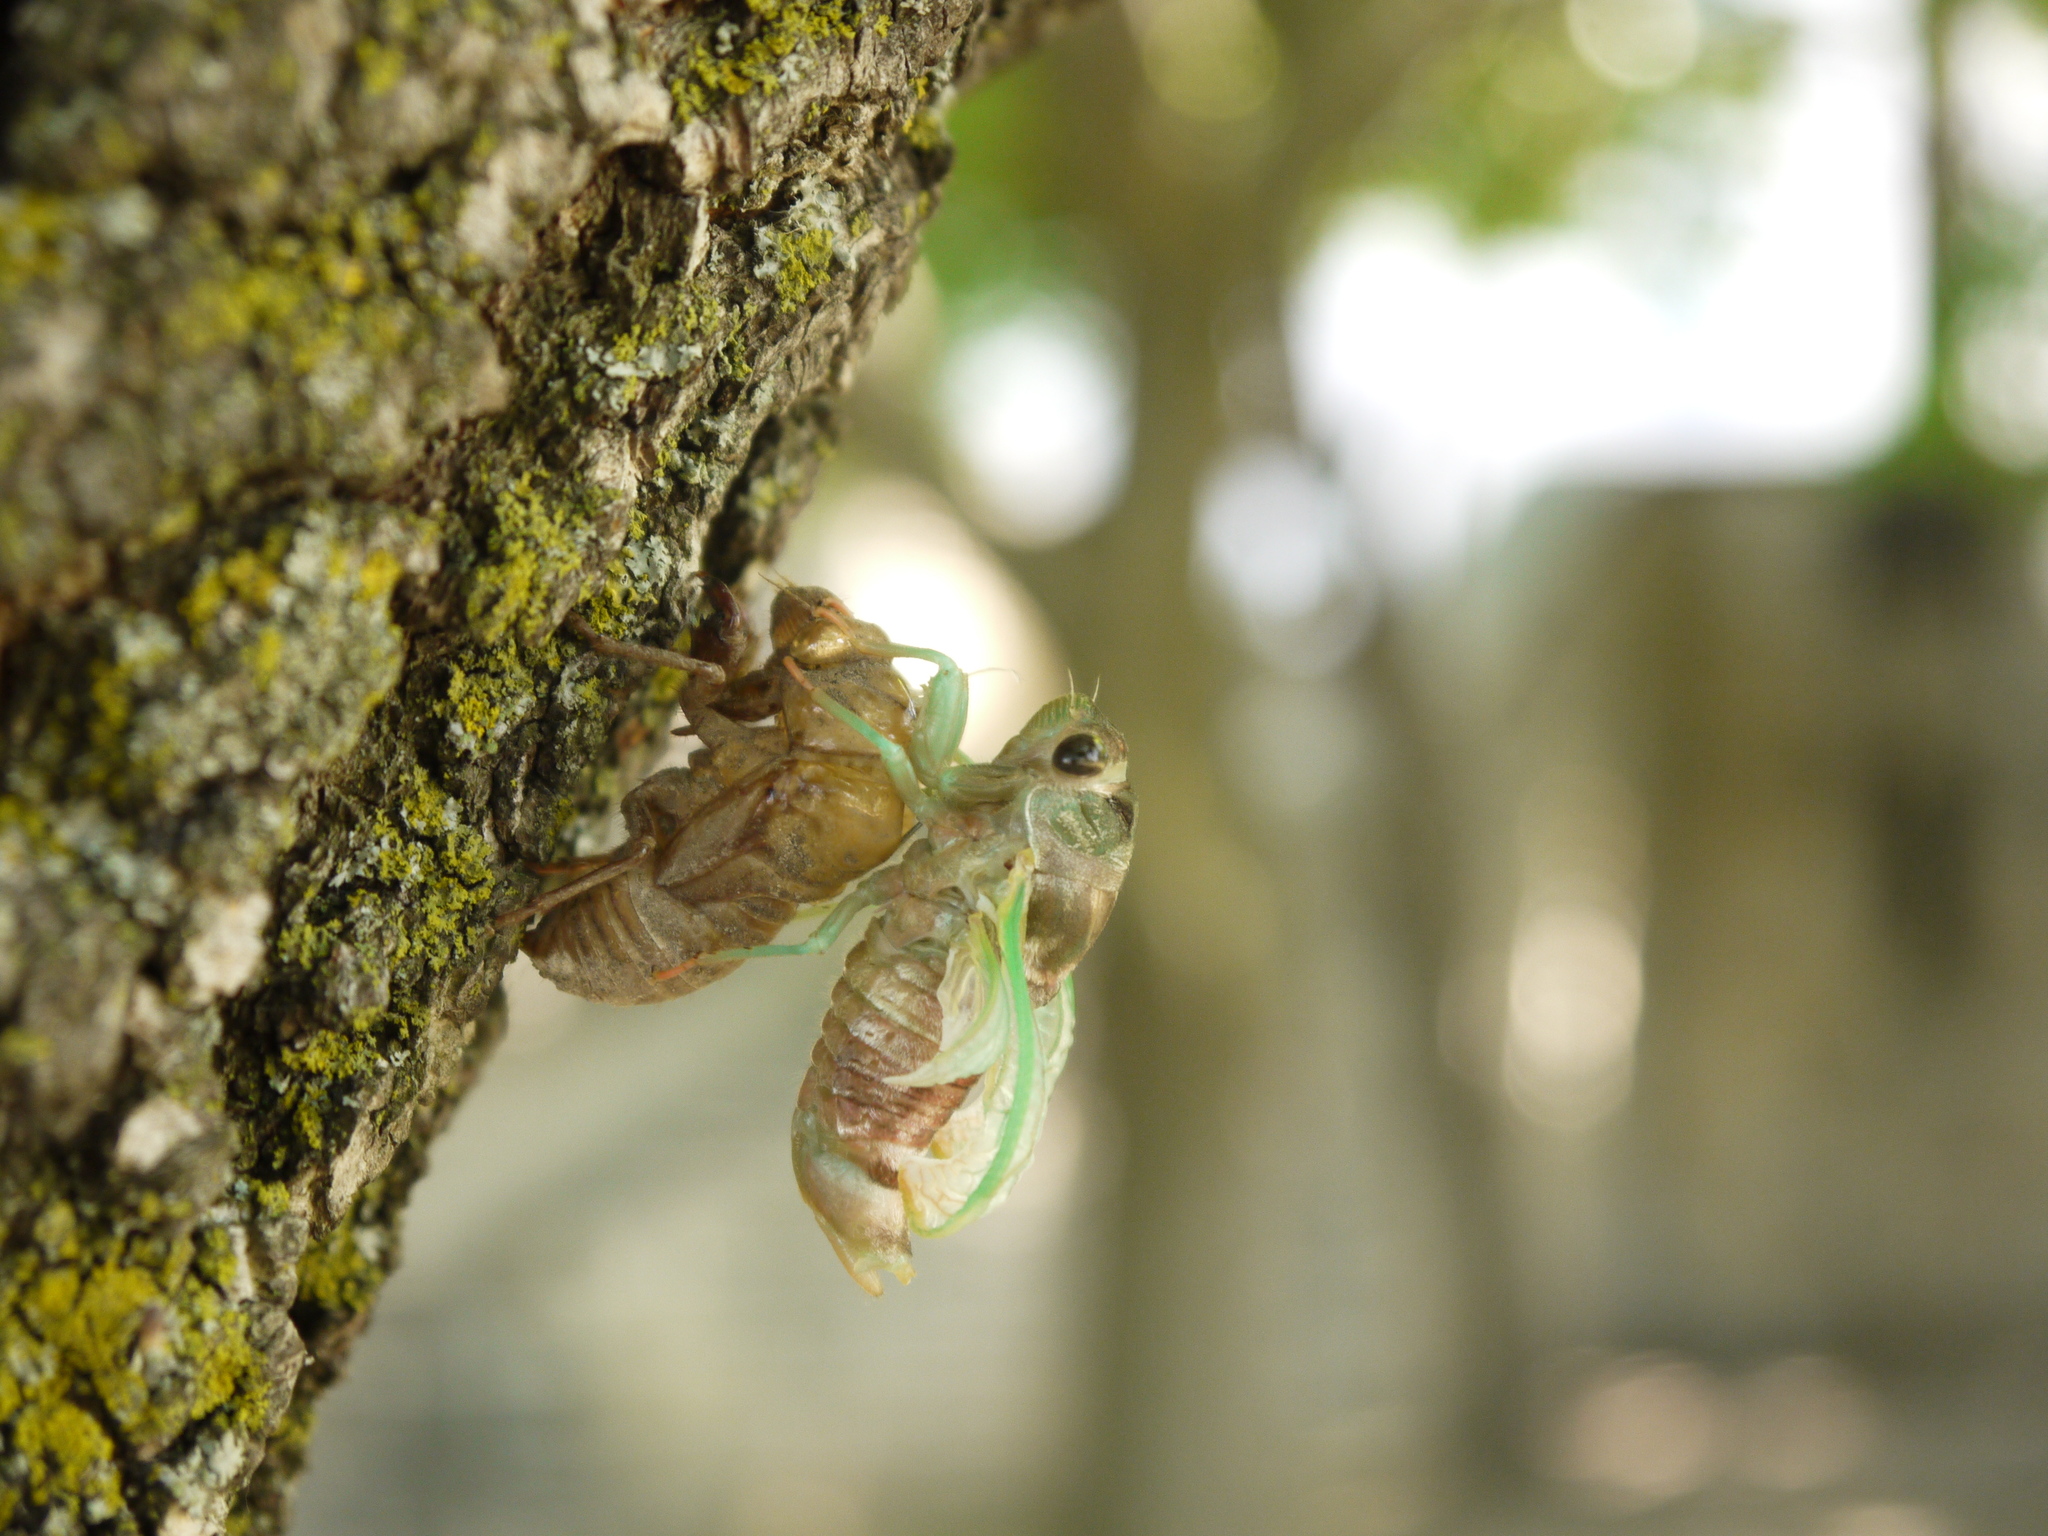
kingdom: Animalia
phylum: Arthropoda
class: Insecta
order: Hemiptera
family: Cicadidae
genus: Neotibicen
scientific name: Neotibicen canicularis
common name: God-day cicada
